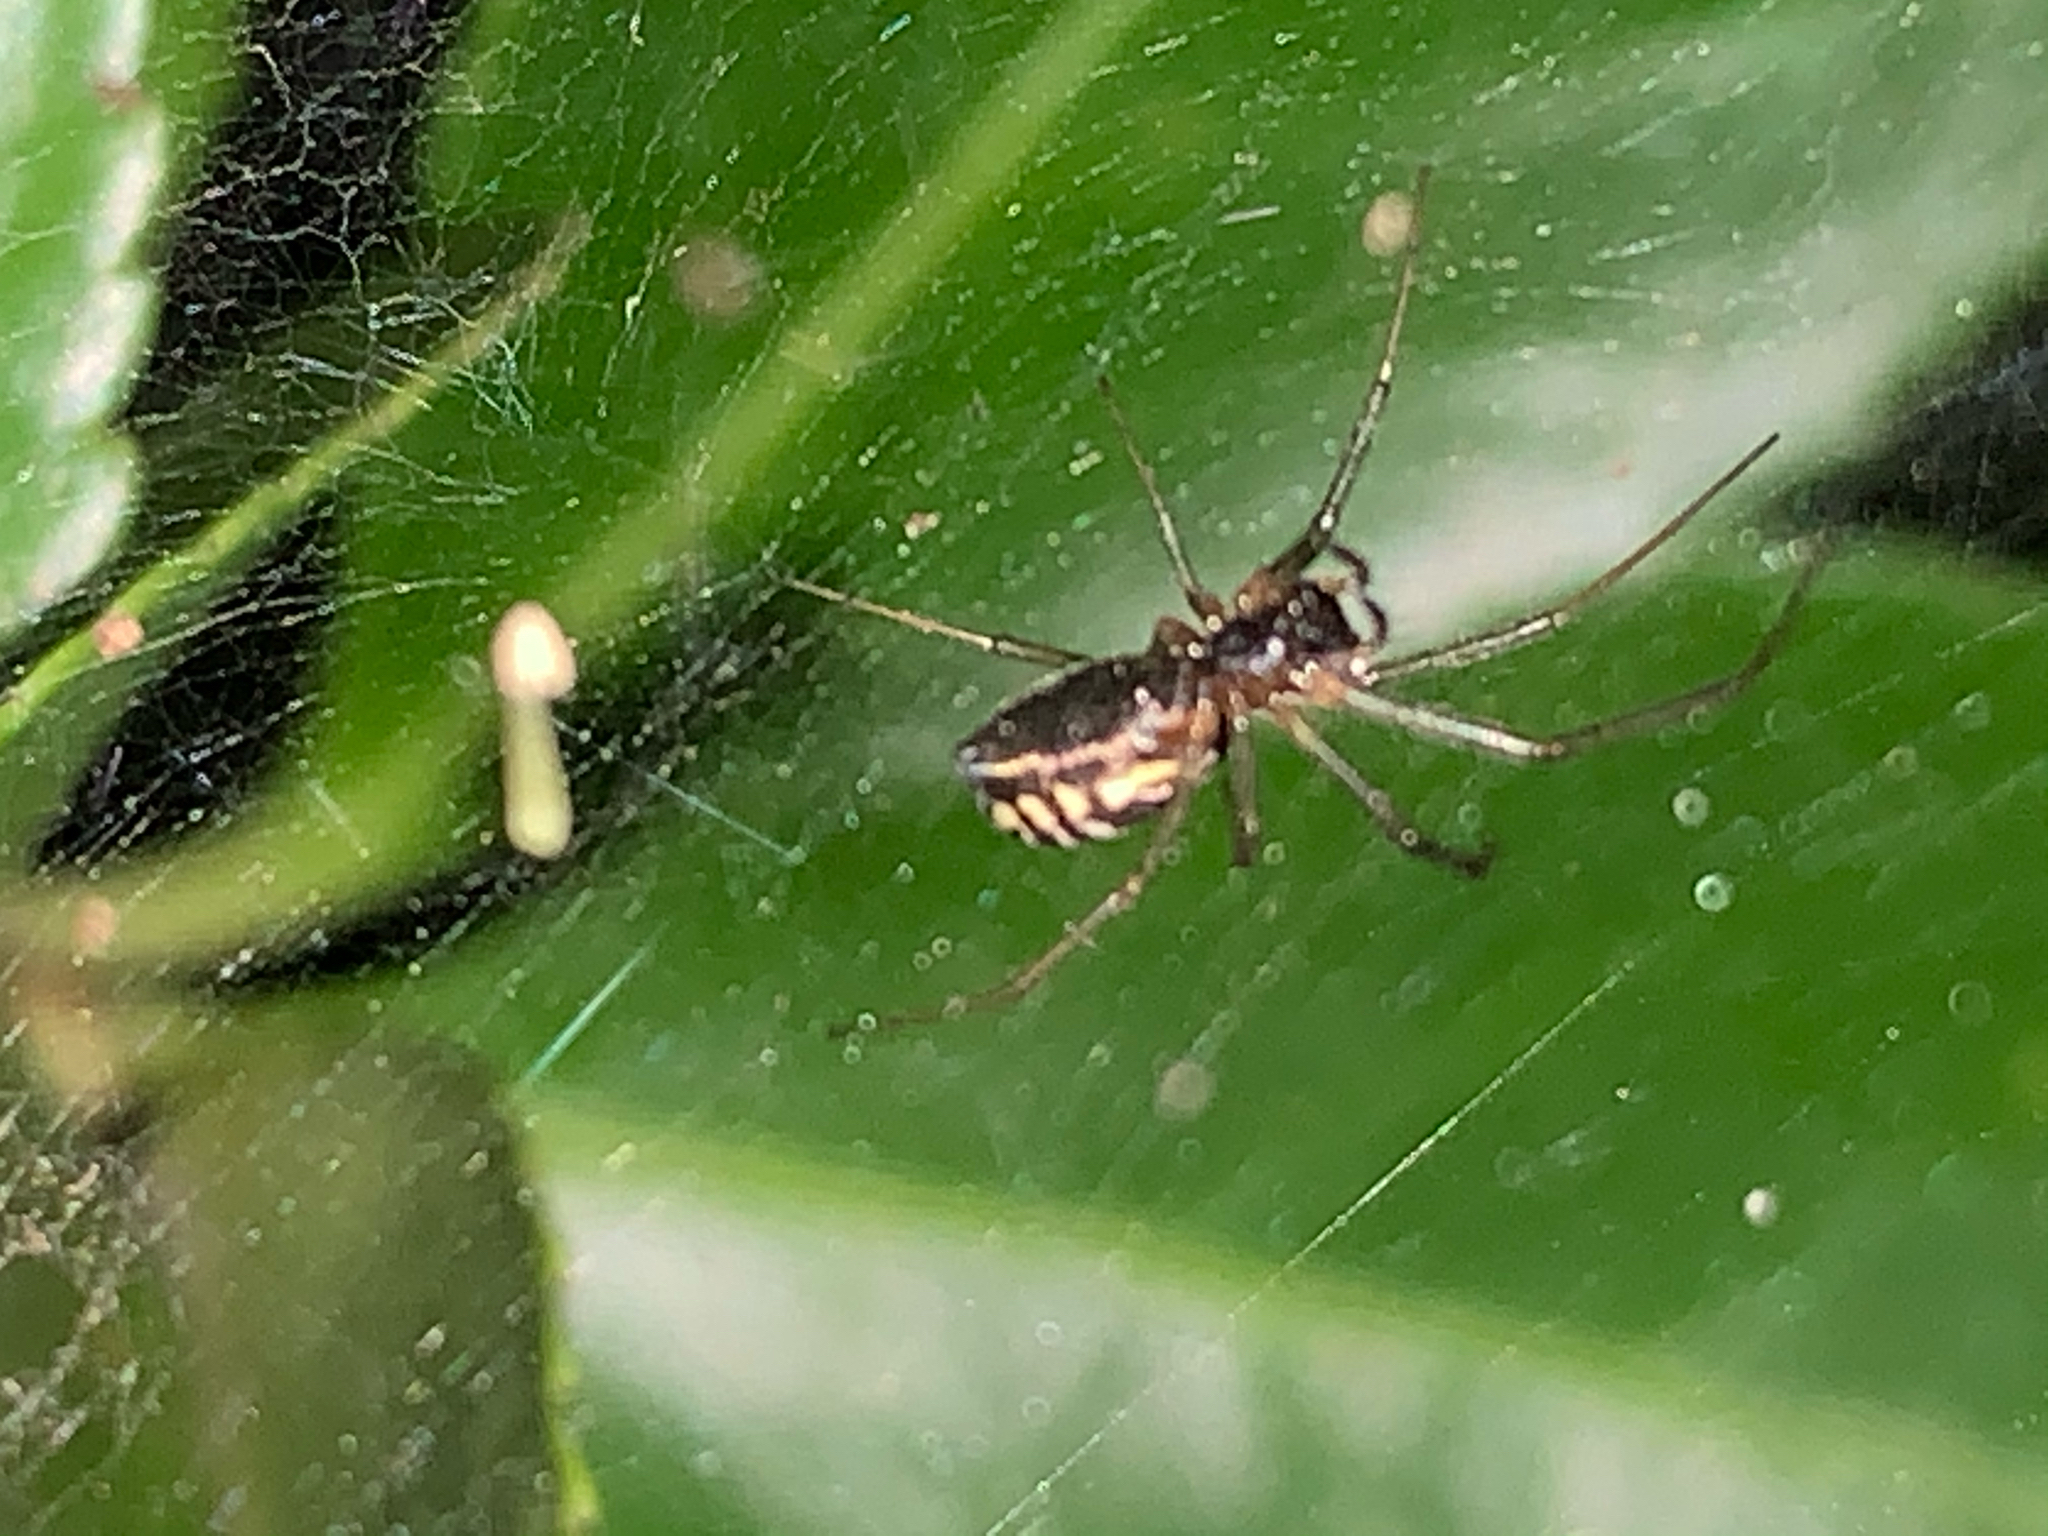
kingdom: Animalia
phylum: Arthropoda
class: Arachnida
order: Araneae
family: Linyphiidae
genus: Frontinella
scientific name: Frontinella pyramitela
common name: Bowl-and-doily spider
